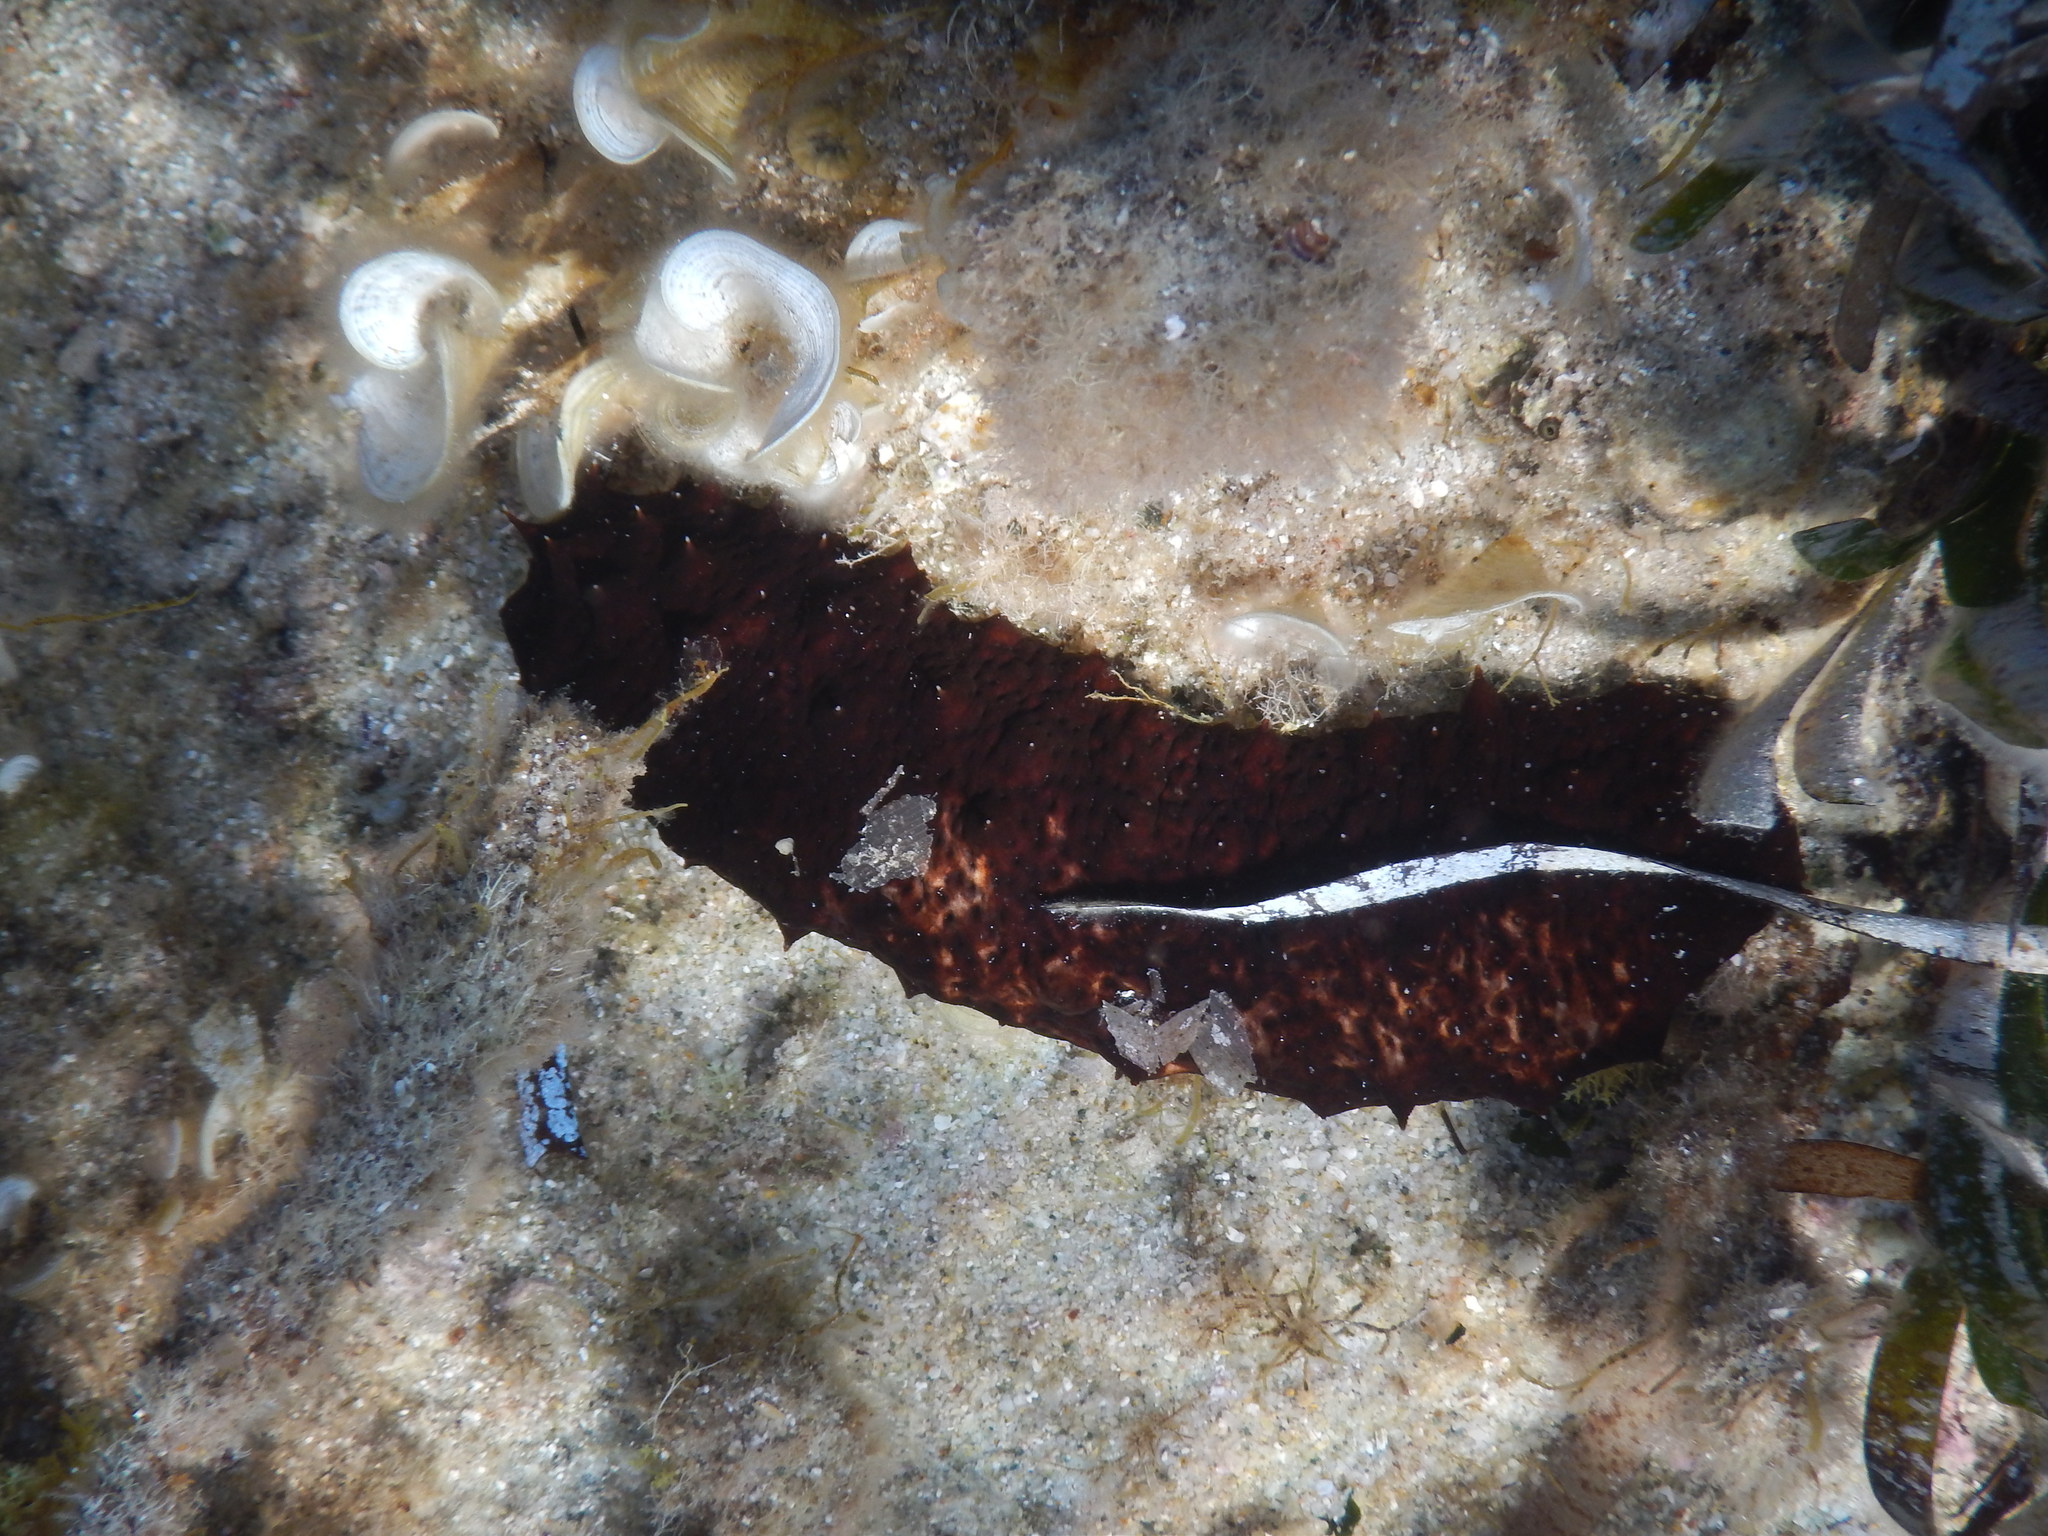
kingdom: Animalia
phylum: Echinodermata
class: Holothuroidea
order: Holothuriida
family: Holothuriidae
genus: Holothuria
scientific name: Holothuria poli
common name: White spot cucumber
